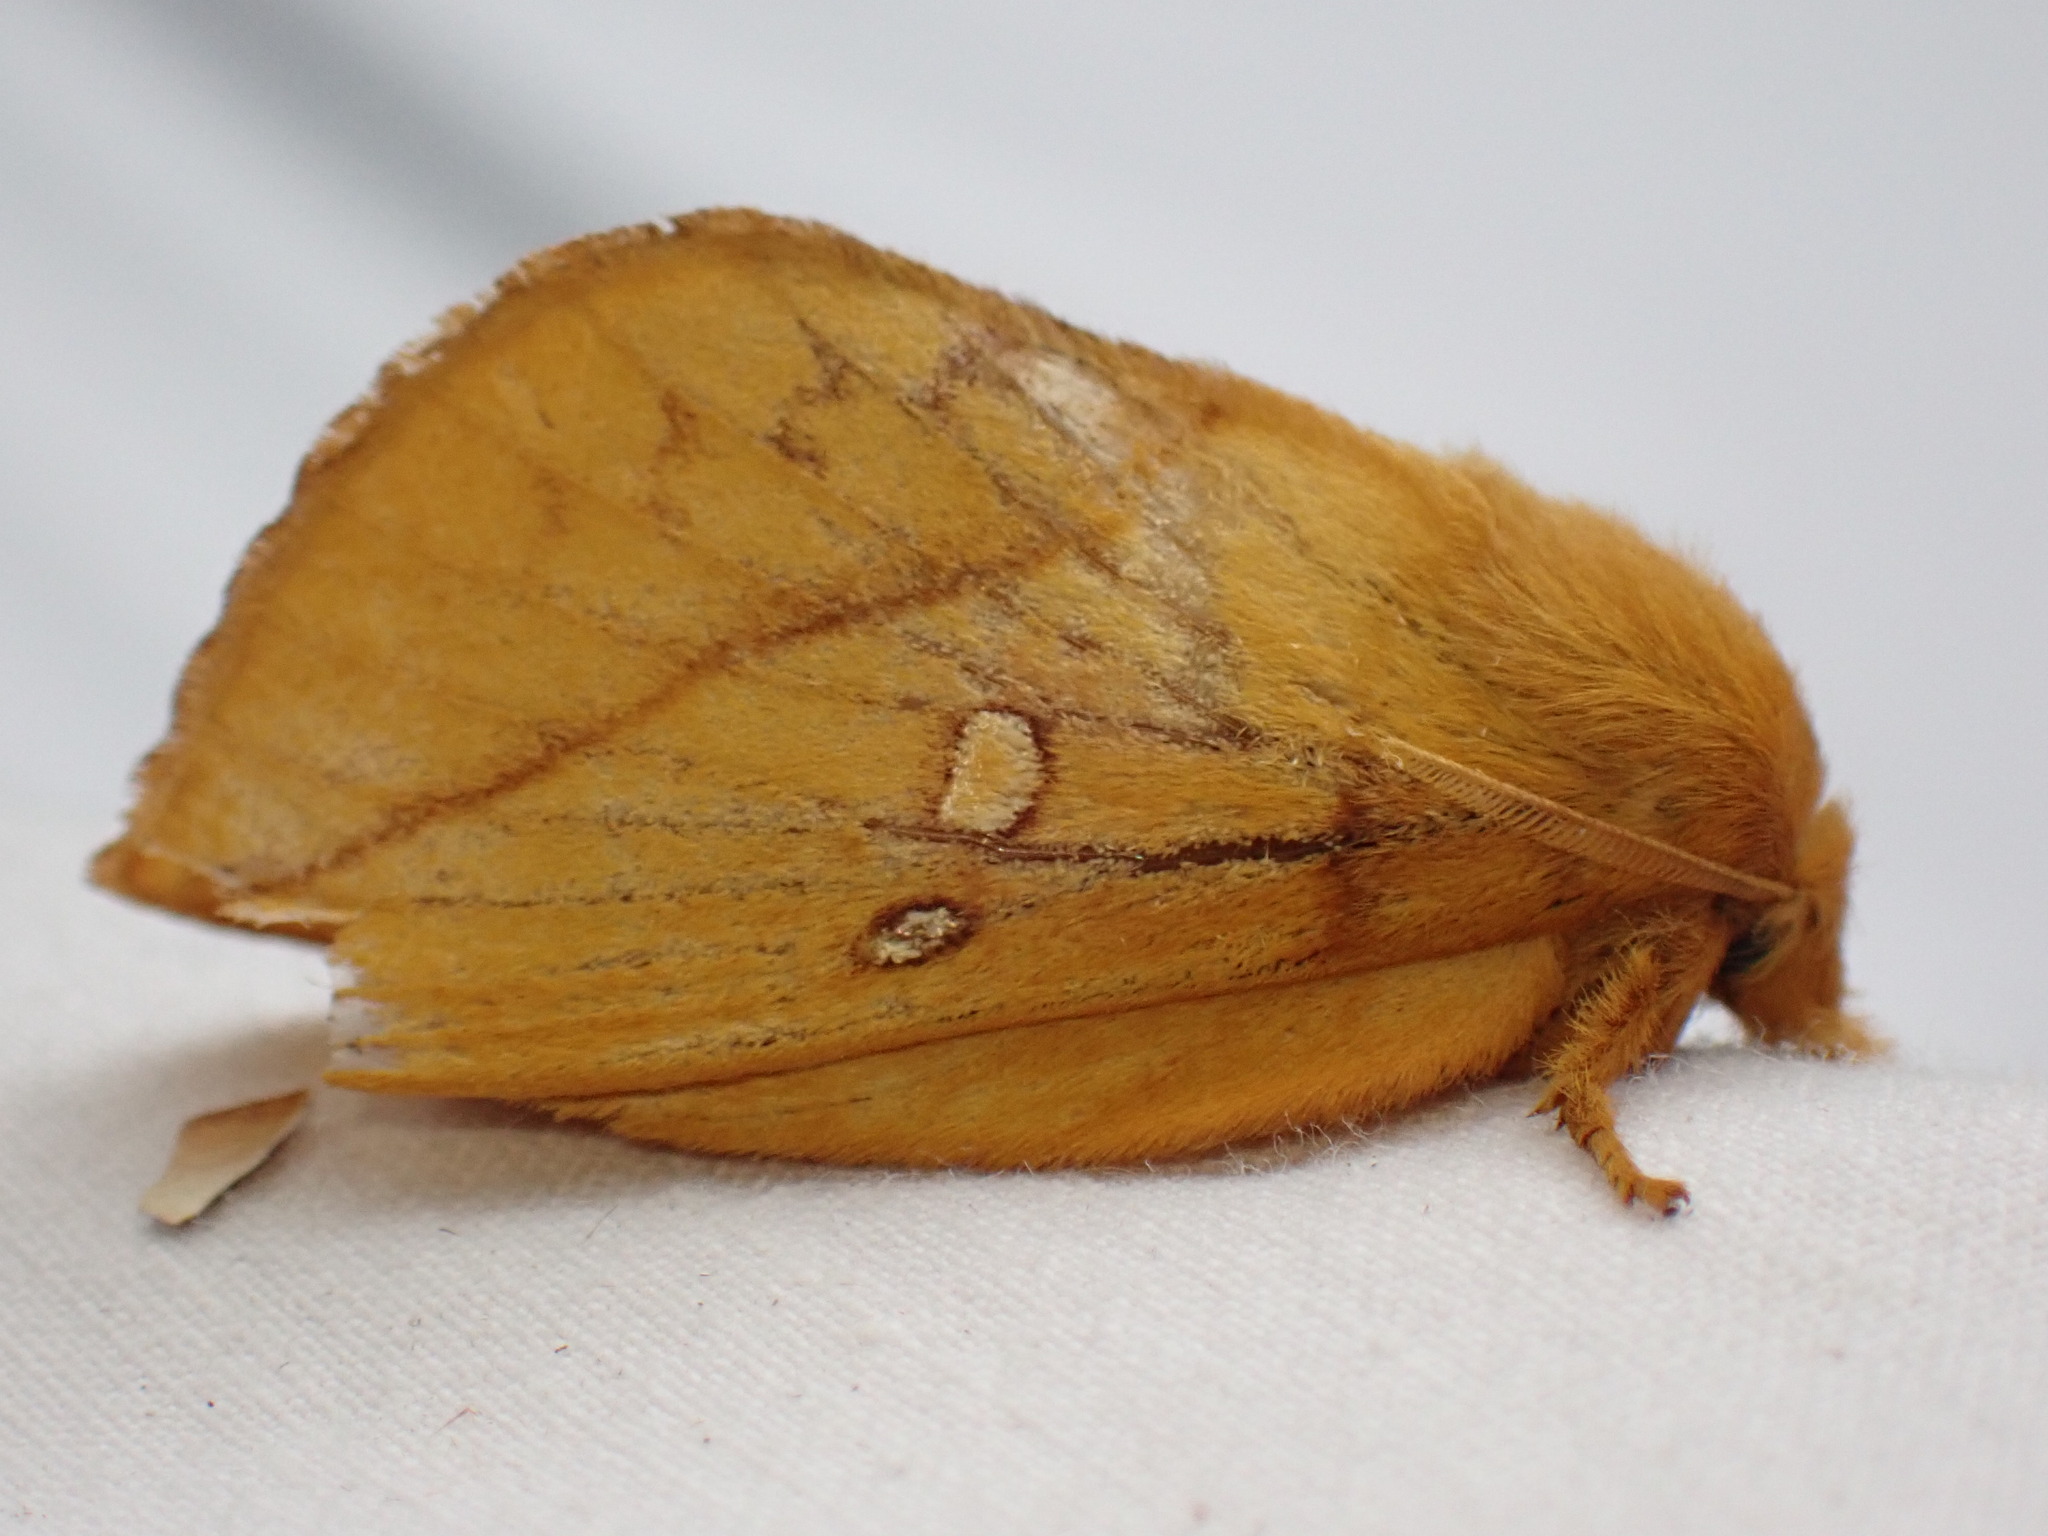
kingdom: Animalia
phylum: Arthropoda
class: Insecta
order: Lepidoptera
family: Lasiocampidae
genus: Euthrix
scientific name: Euthrix potatoria
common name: Drinker
